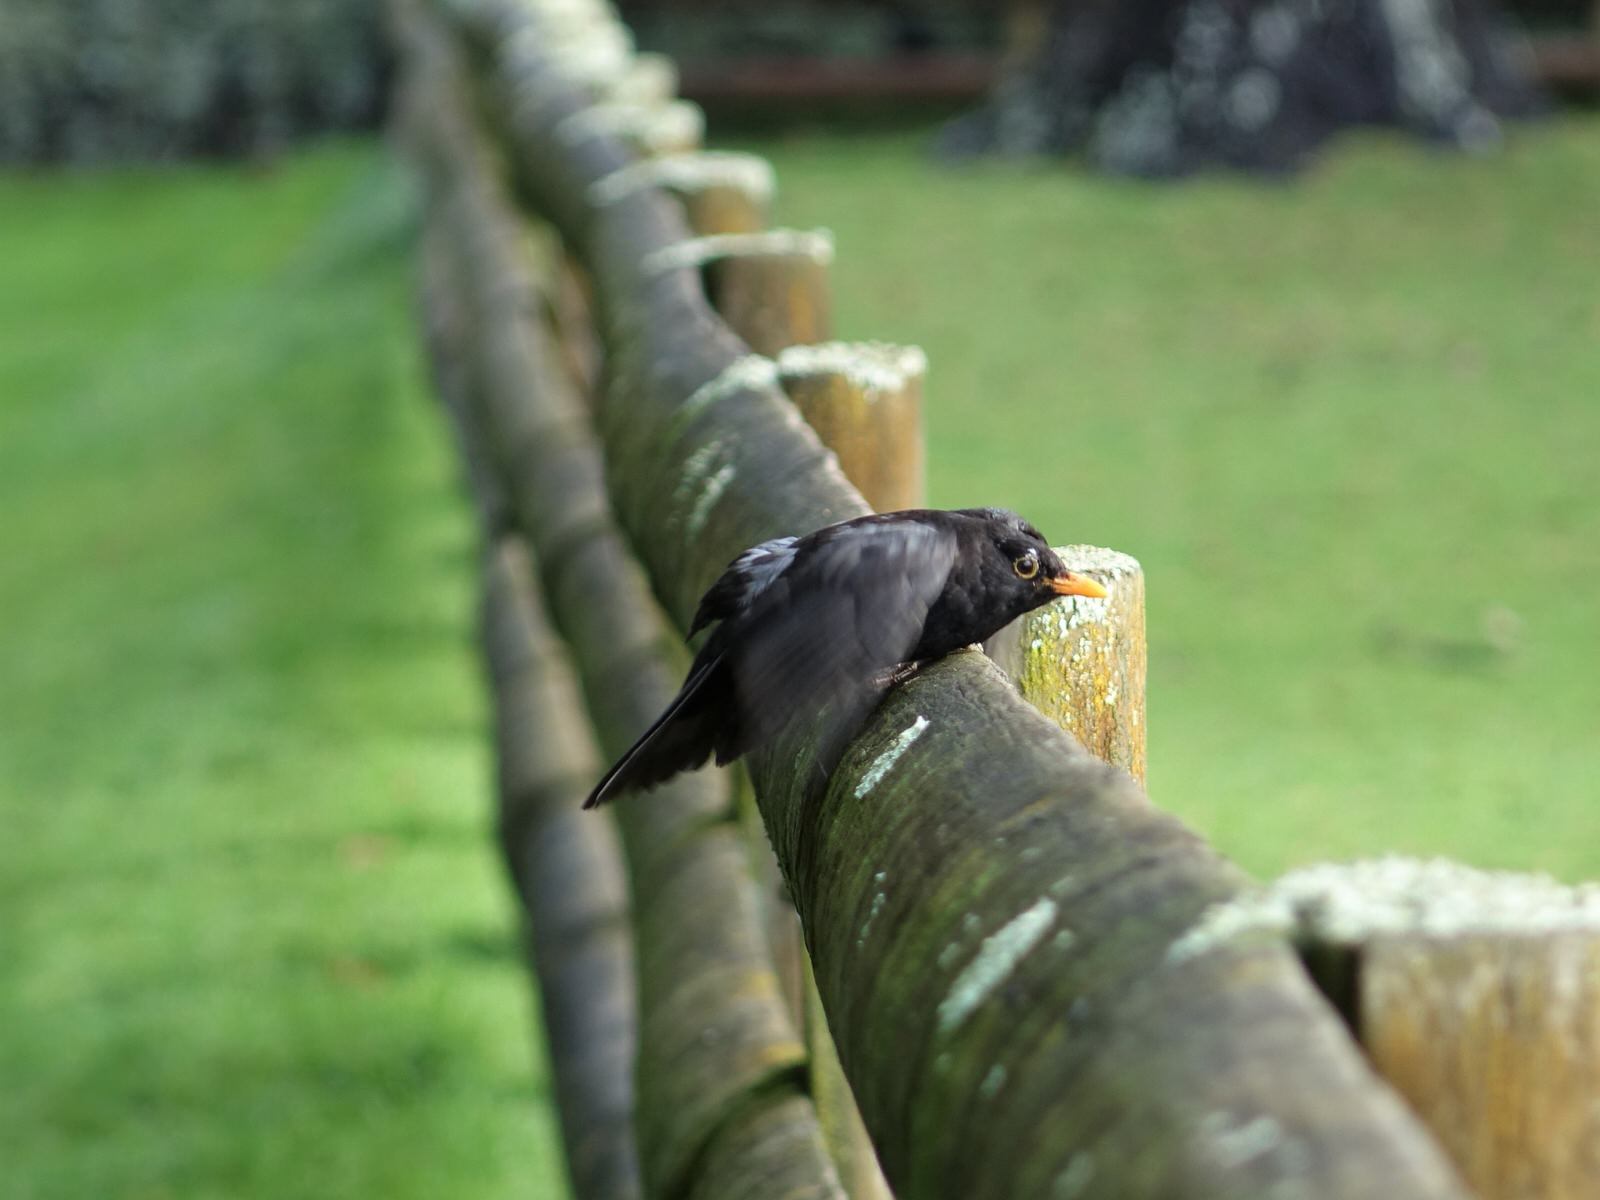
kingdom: Animalia
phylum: Chordata
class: Aves
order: Passeriformes
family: Turdidae
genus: Turdus
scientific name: Turdus merula
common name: Common blackbird
